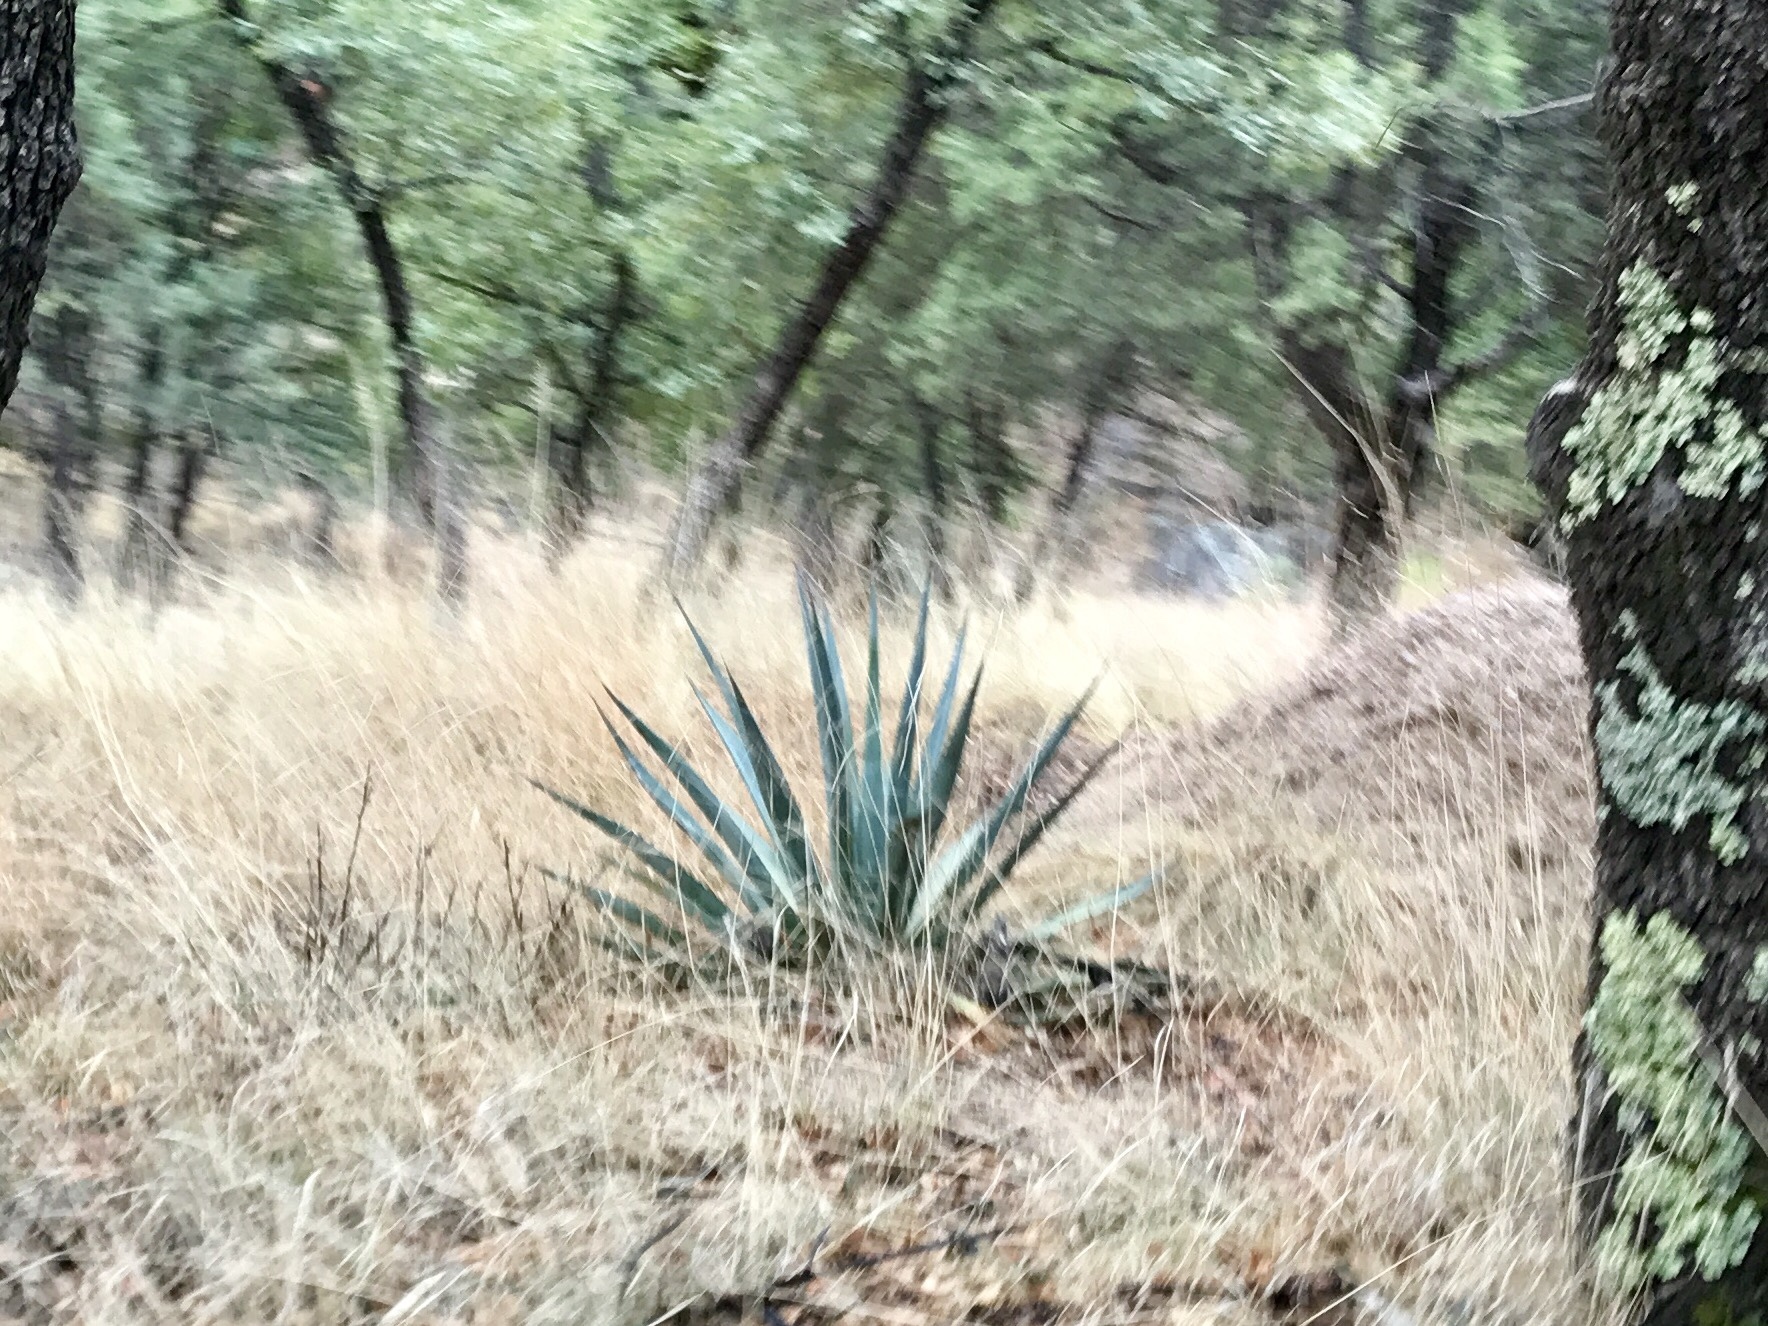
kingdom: Plantae
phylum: Tracheophyta
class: Liliopsida
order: Asparagales
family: Asparagaceae
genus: Agave
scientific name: Agave palmeri
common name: Palmer agave
